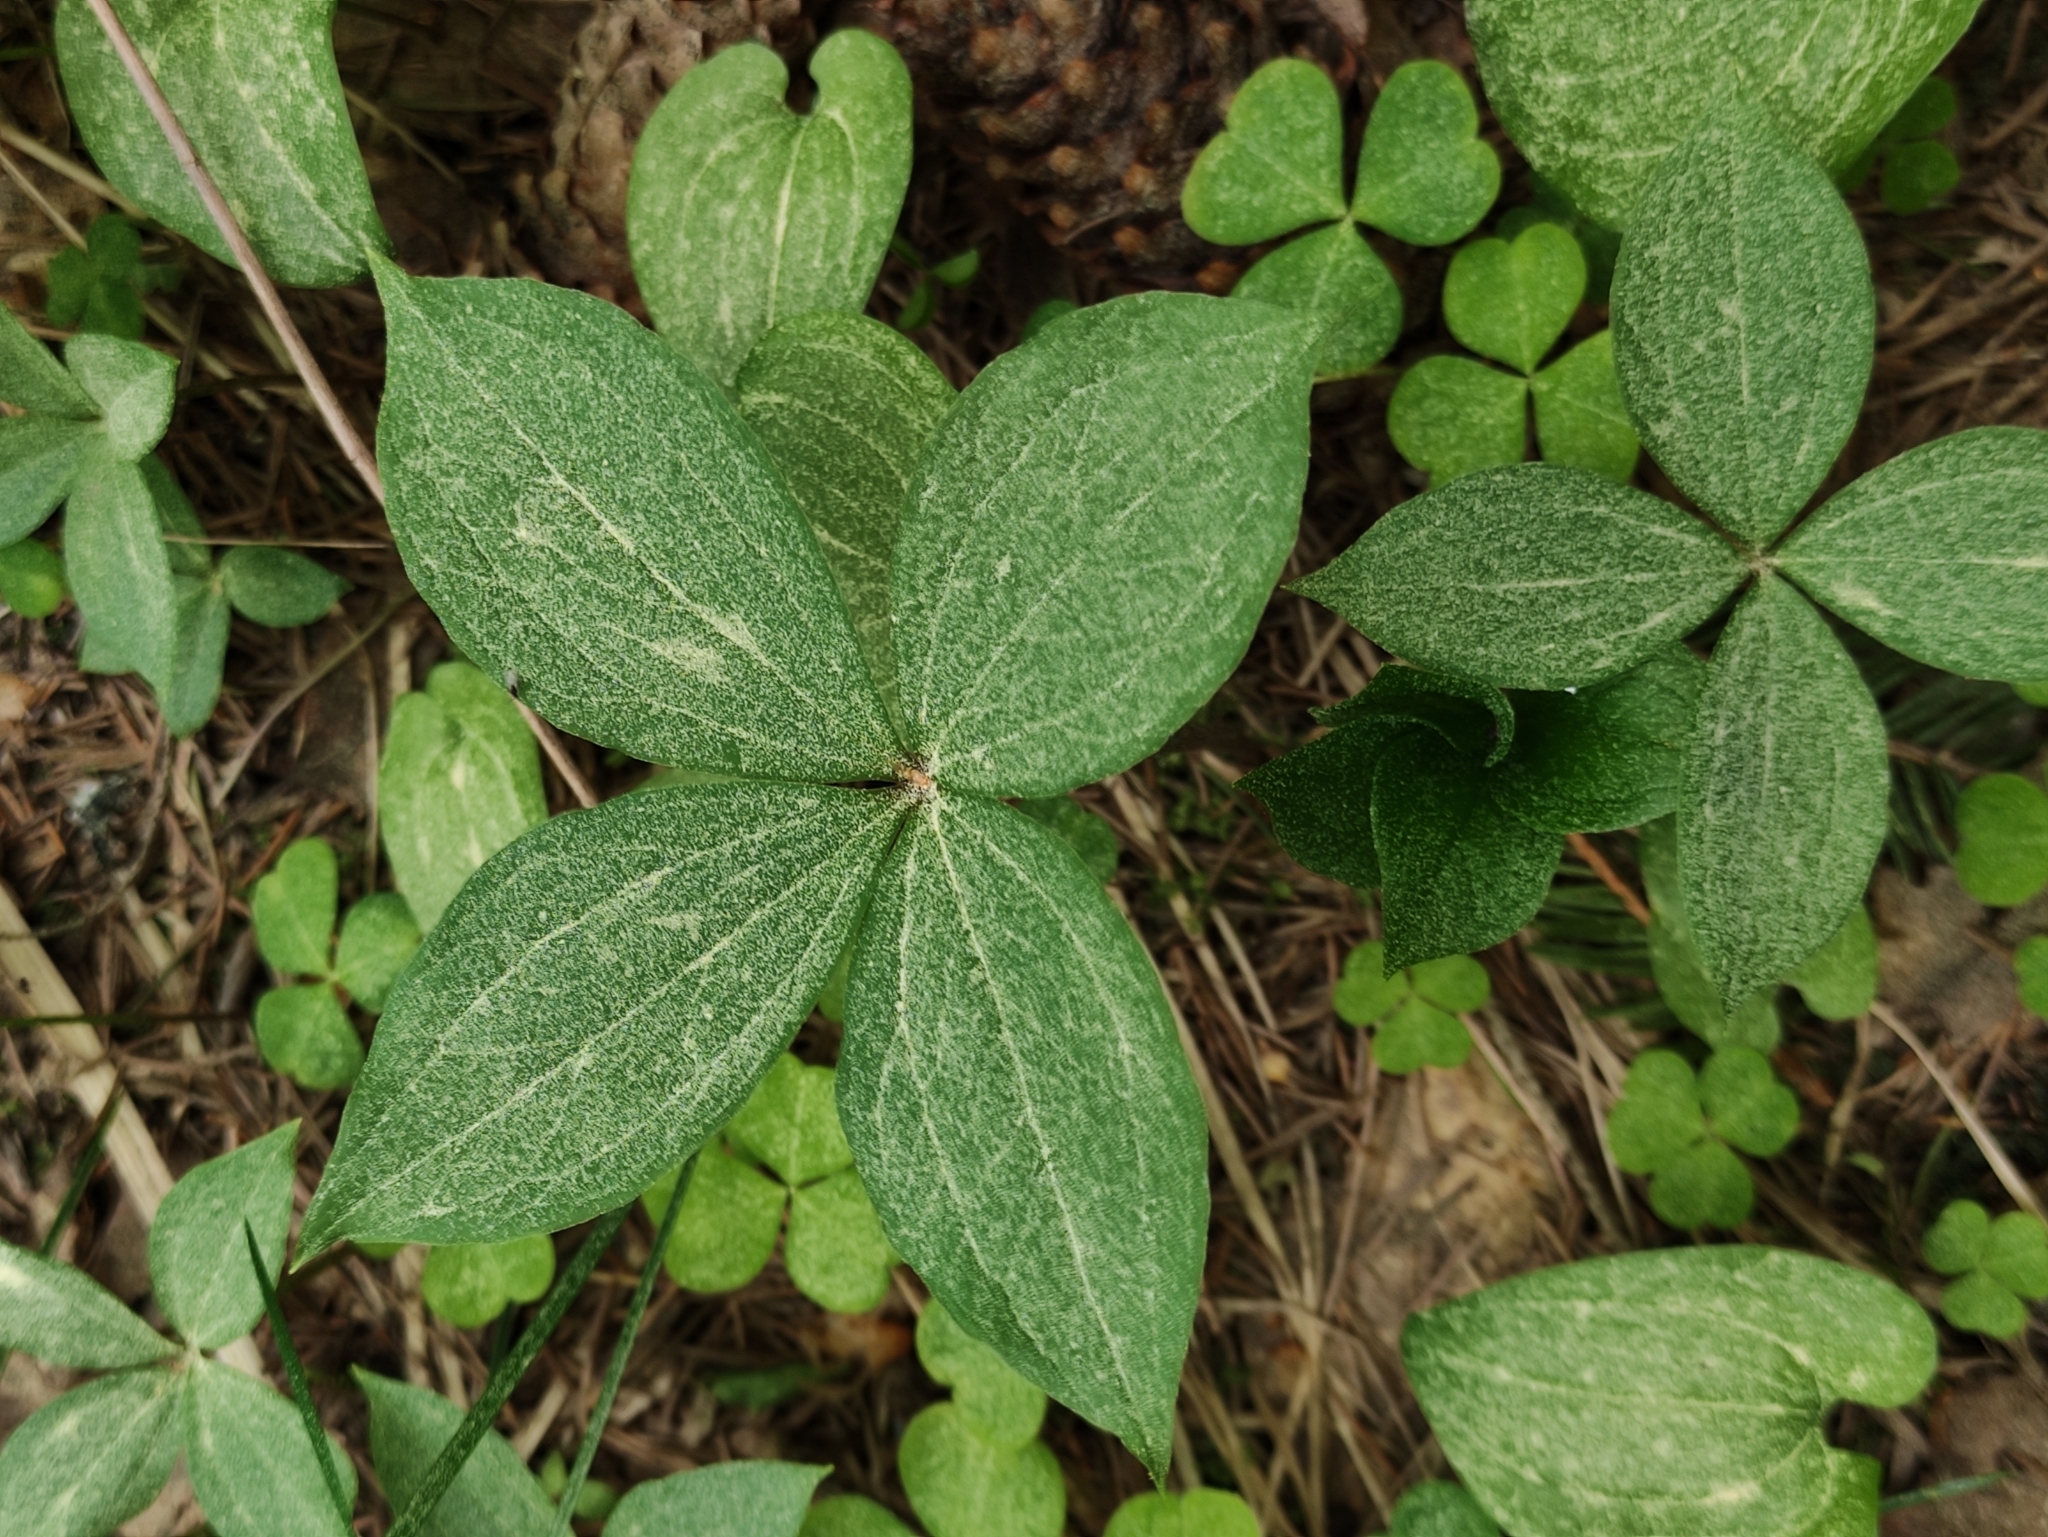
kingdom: Plantae
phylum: Tracheophyta
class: Liliopsida
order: Liliales
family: Melanthiaceae
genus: Paris
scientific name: Paris quadrifolia
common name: Herb-paris
